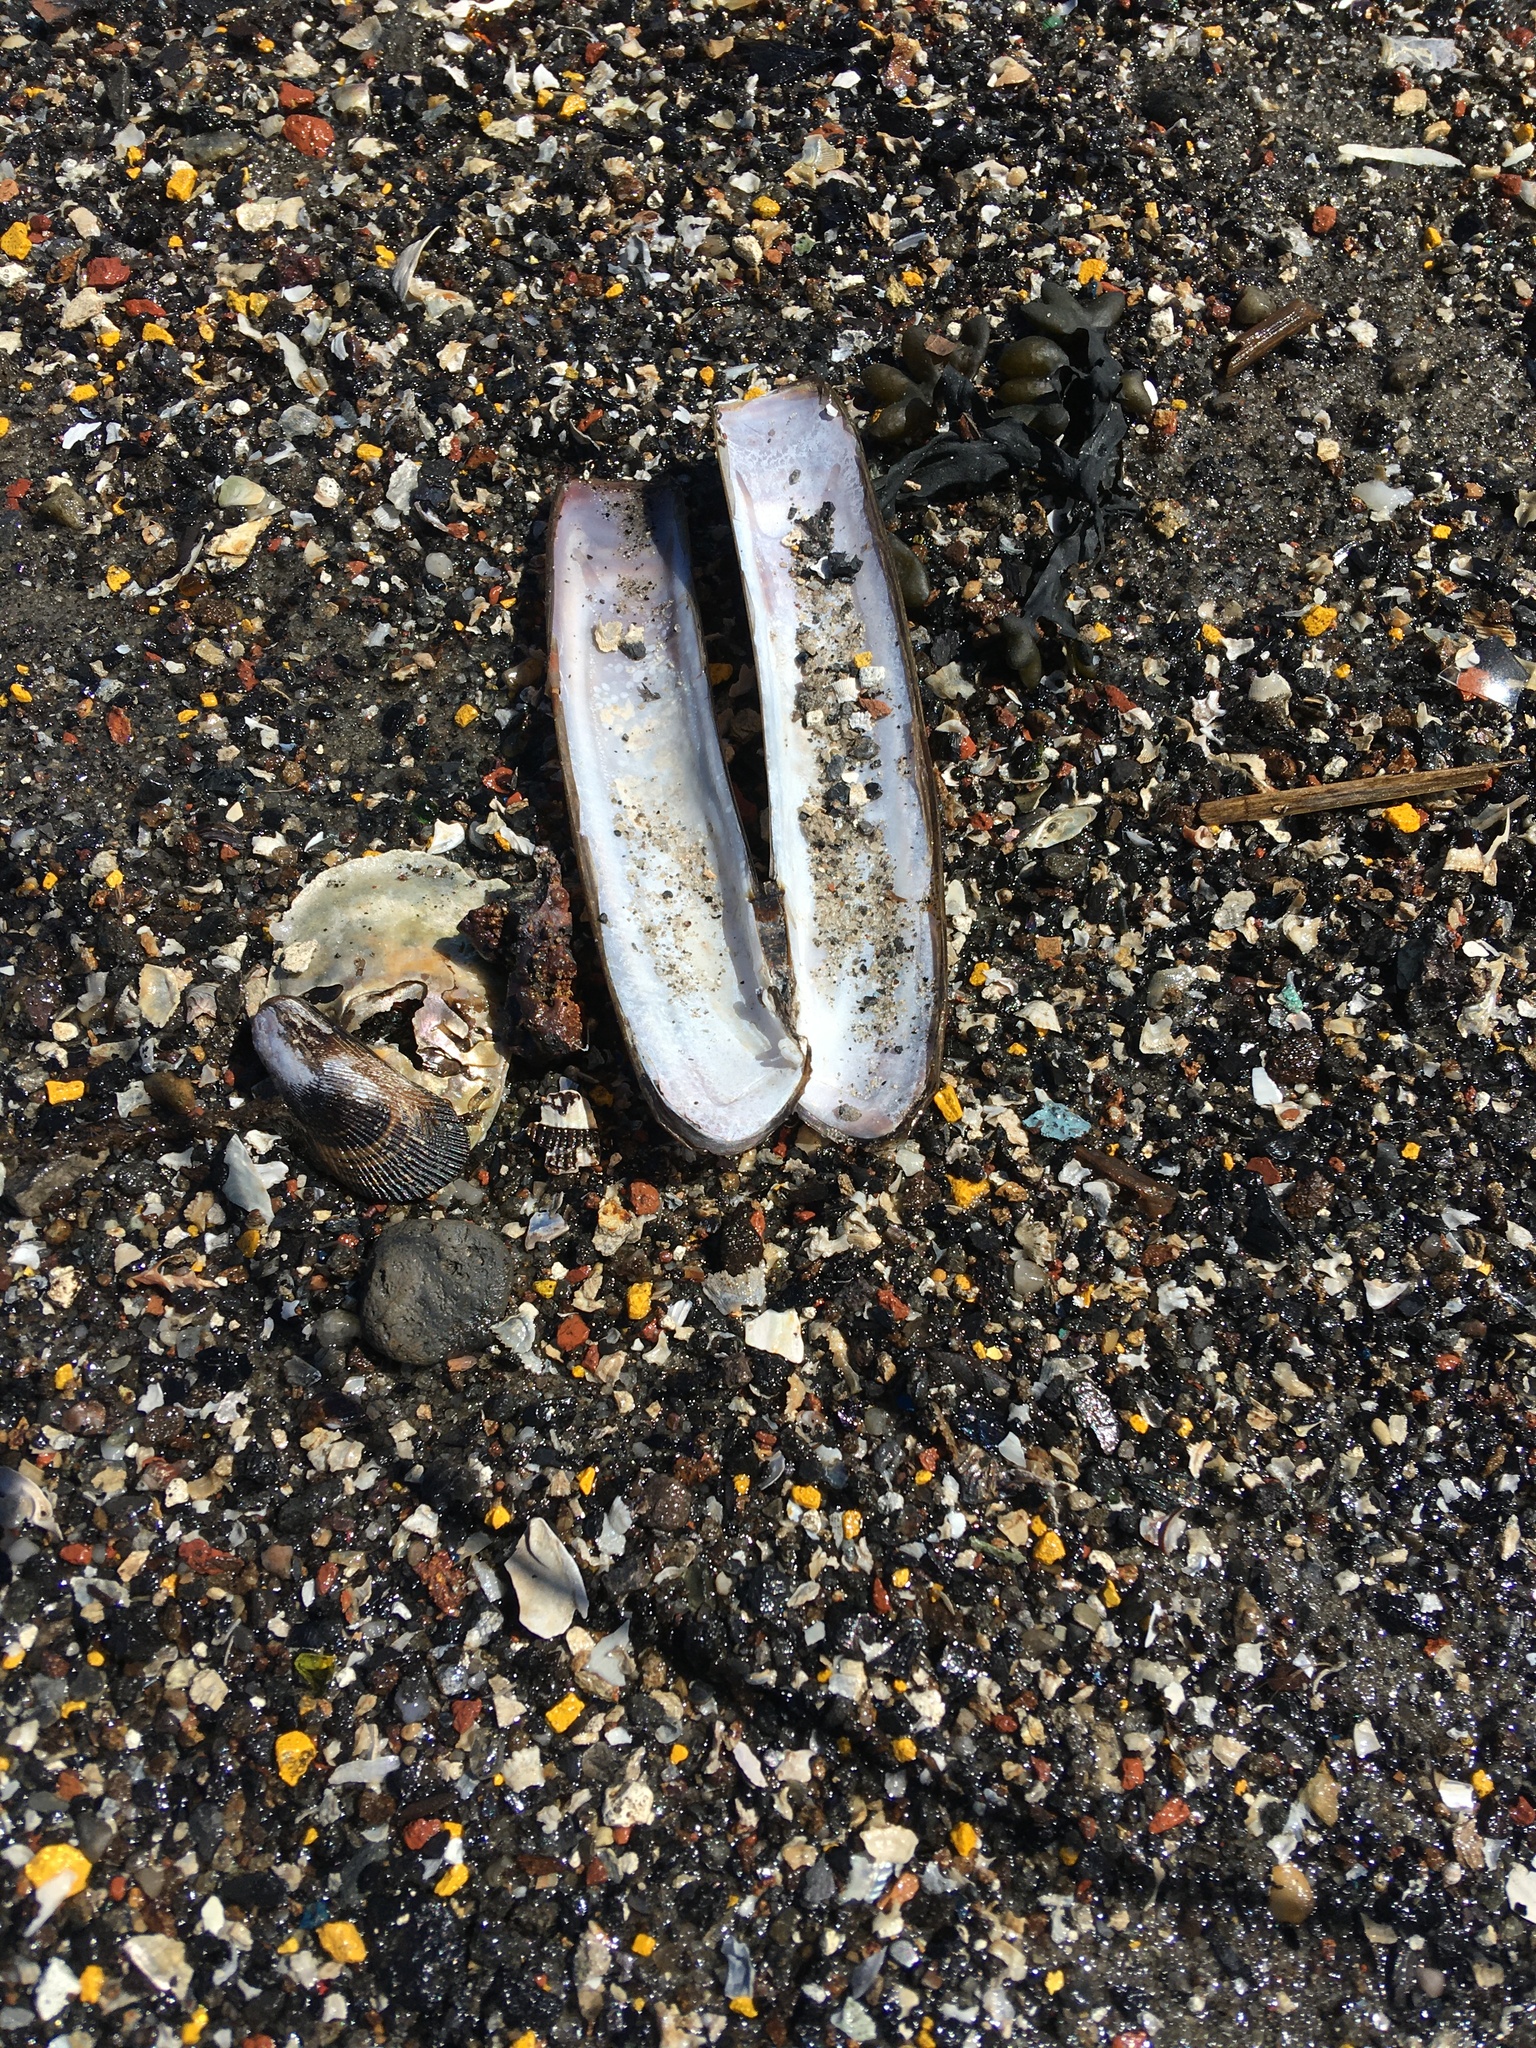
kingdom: Animalia
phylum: Mollusca
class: Bivalvia
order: Adapedonta
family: Pharidae
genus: Ensis
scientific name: Ensis leei
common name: American jack knife clam
